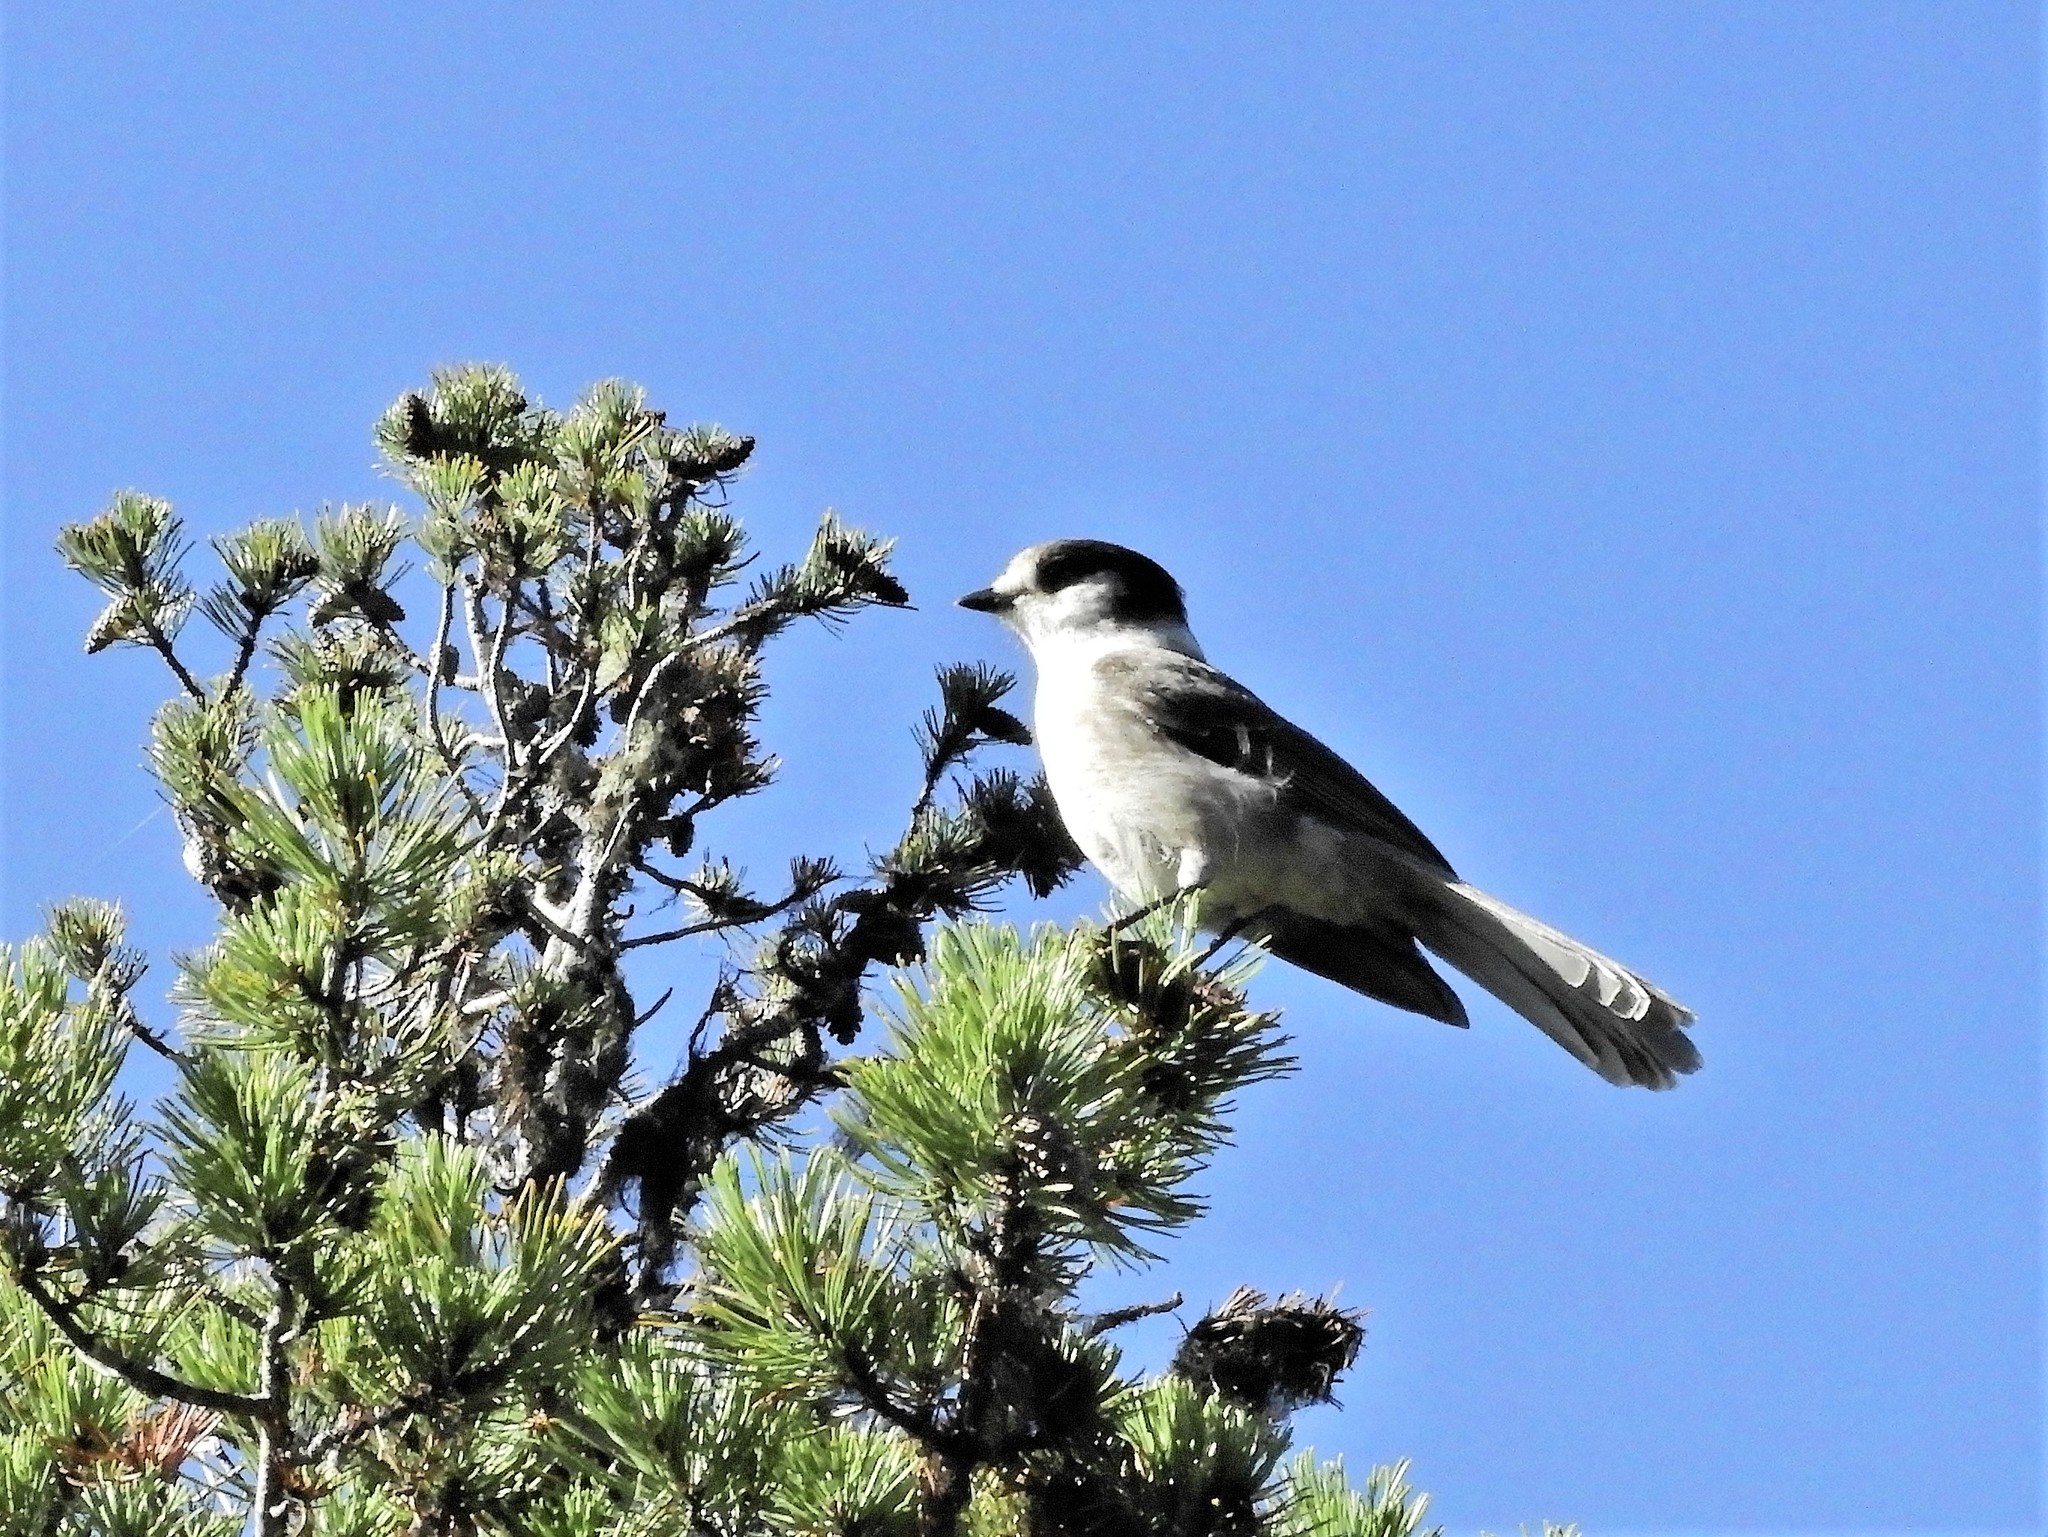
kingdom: Animalia
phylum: Chordata
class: Aves
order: Passeriformes
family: Corvidae
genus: Perisoreus
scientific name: Perisoreus canadensis
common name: Gray jay
